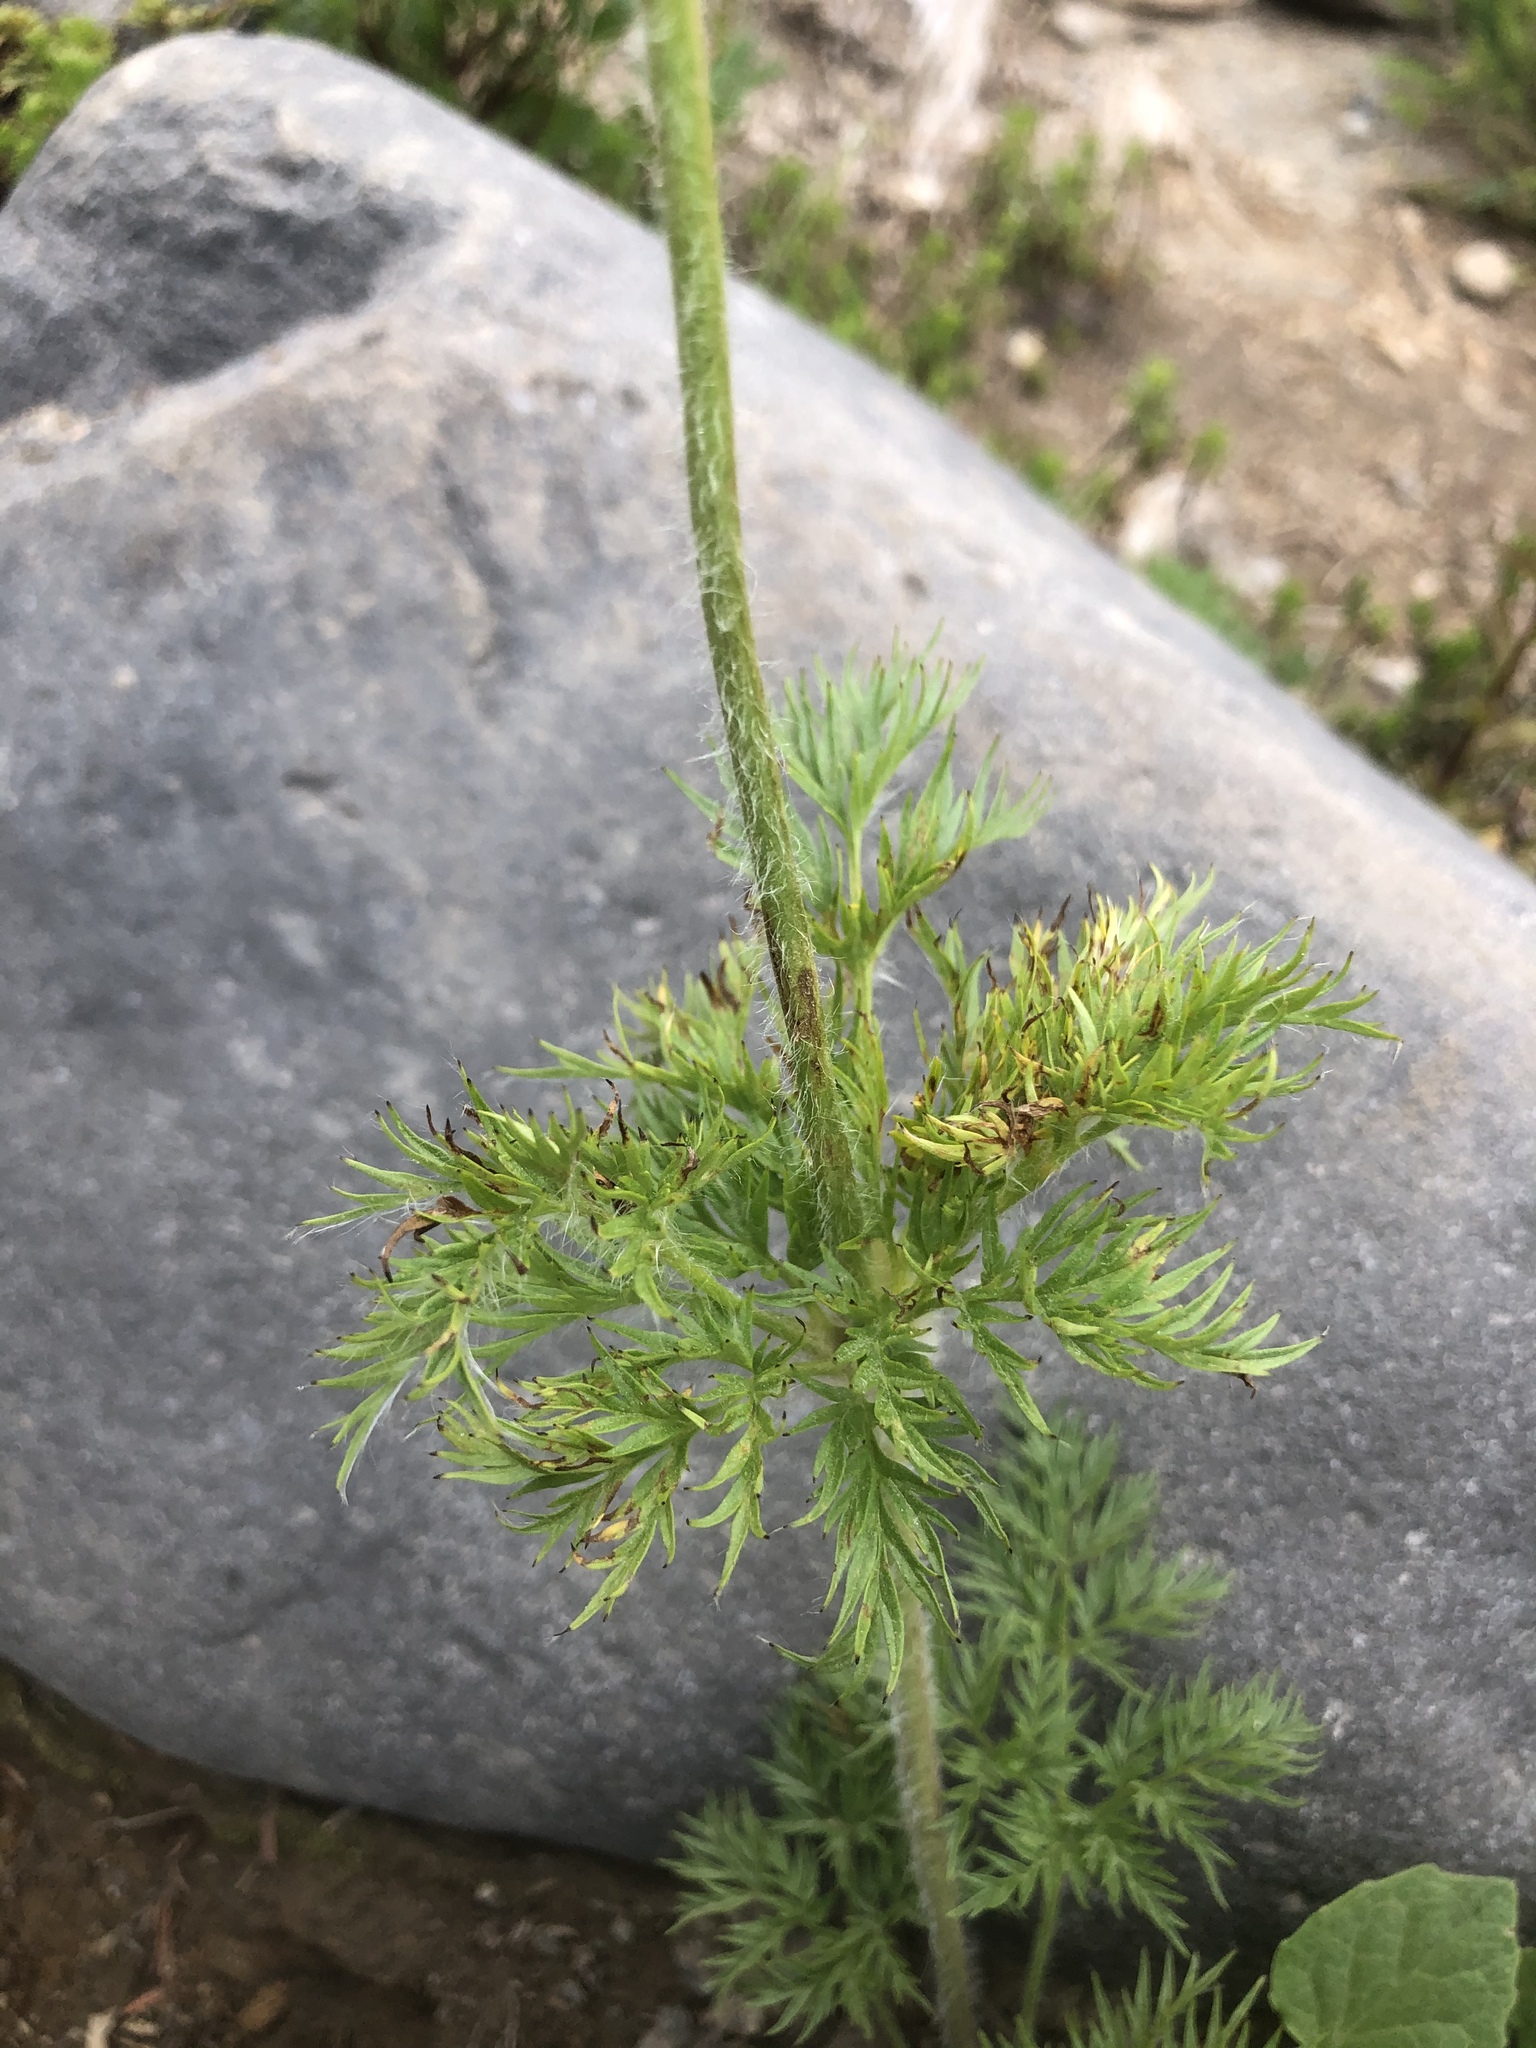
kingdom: Plantae
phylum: Tracheophyta
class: Magnoliopsida
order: Ranunculales
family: Ranunculaceae
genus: Pulsatilla
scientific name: Pulsatilla occidentalis
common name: Mountain pasqueflower
